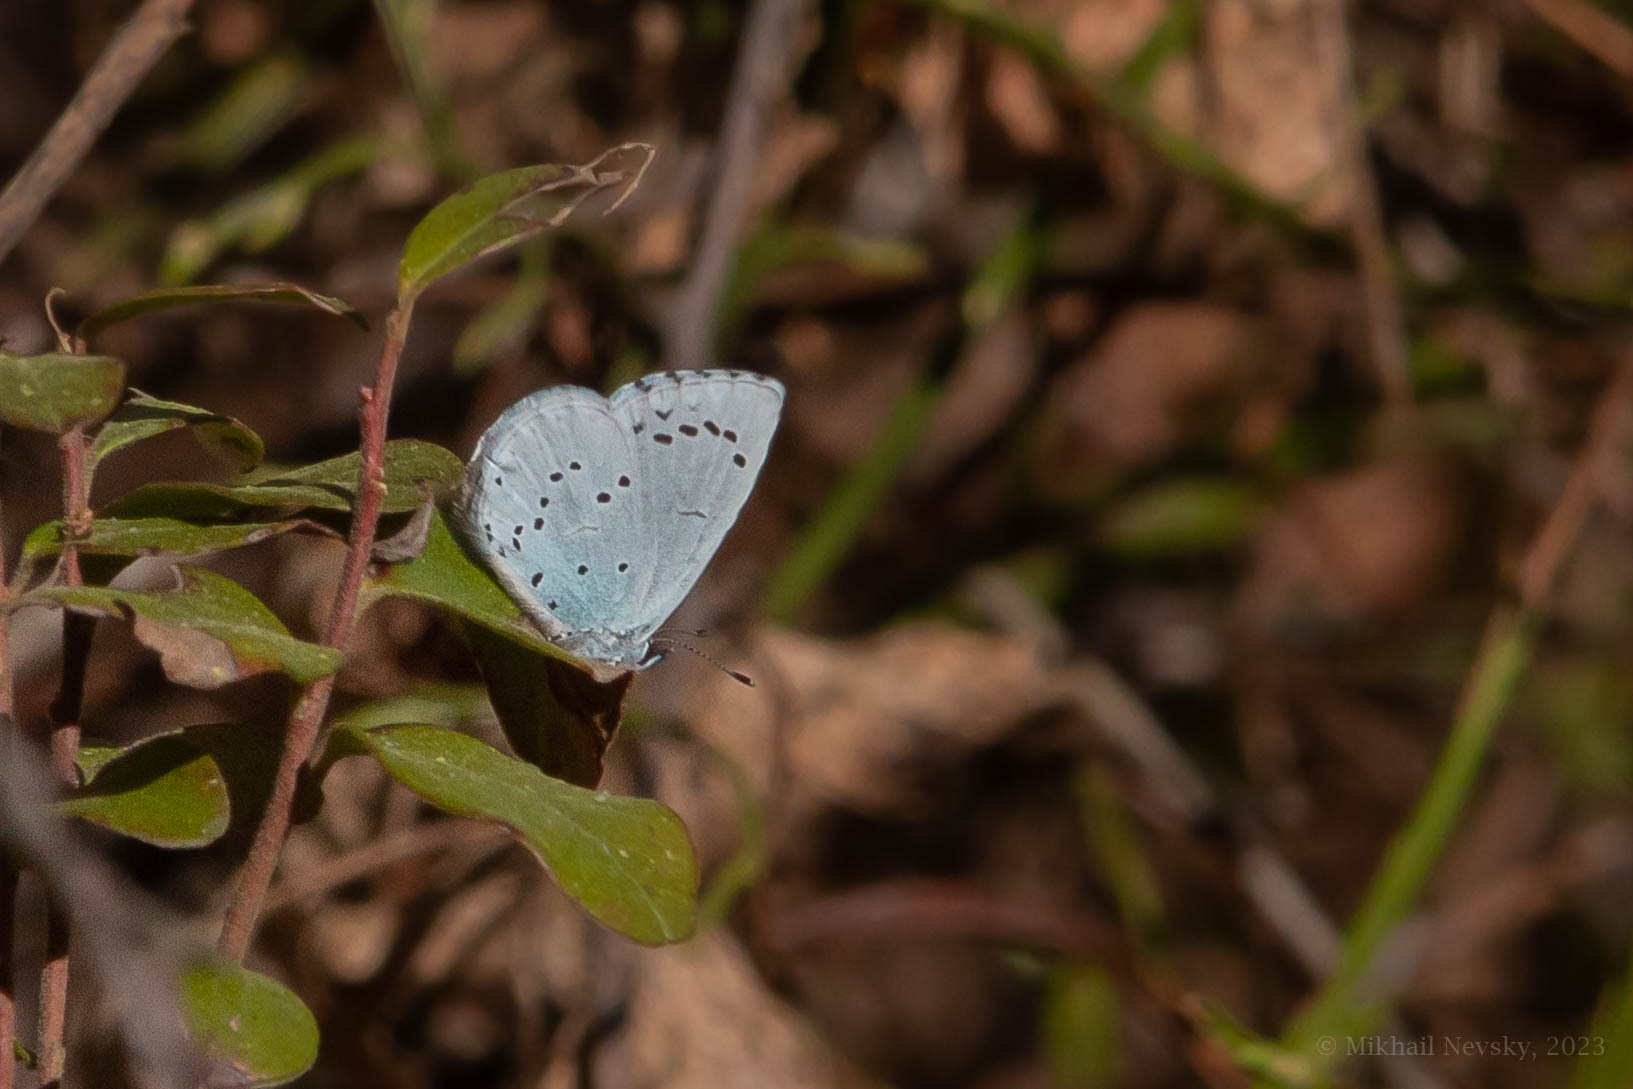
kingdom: Animalia
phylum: Arthropoda
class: Insecta
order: Lepidoptera
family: Lycaenidae
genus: Celastrina
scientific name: Celastrina argiolus
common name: Holly blue
